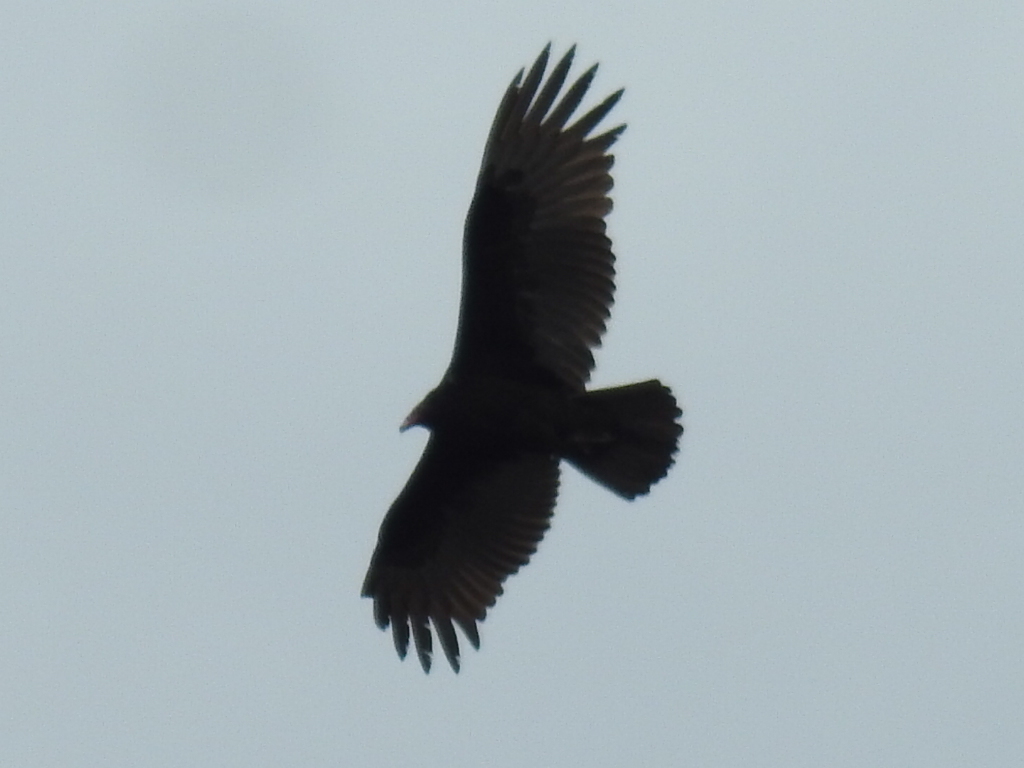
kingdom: Animalia
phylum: Chordata
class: Aves
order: Accipitriformes
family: Cathartidae
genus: Cathartes
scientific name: Cathartes aura
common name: Turkey vulture
